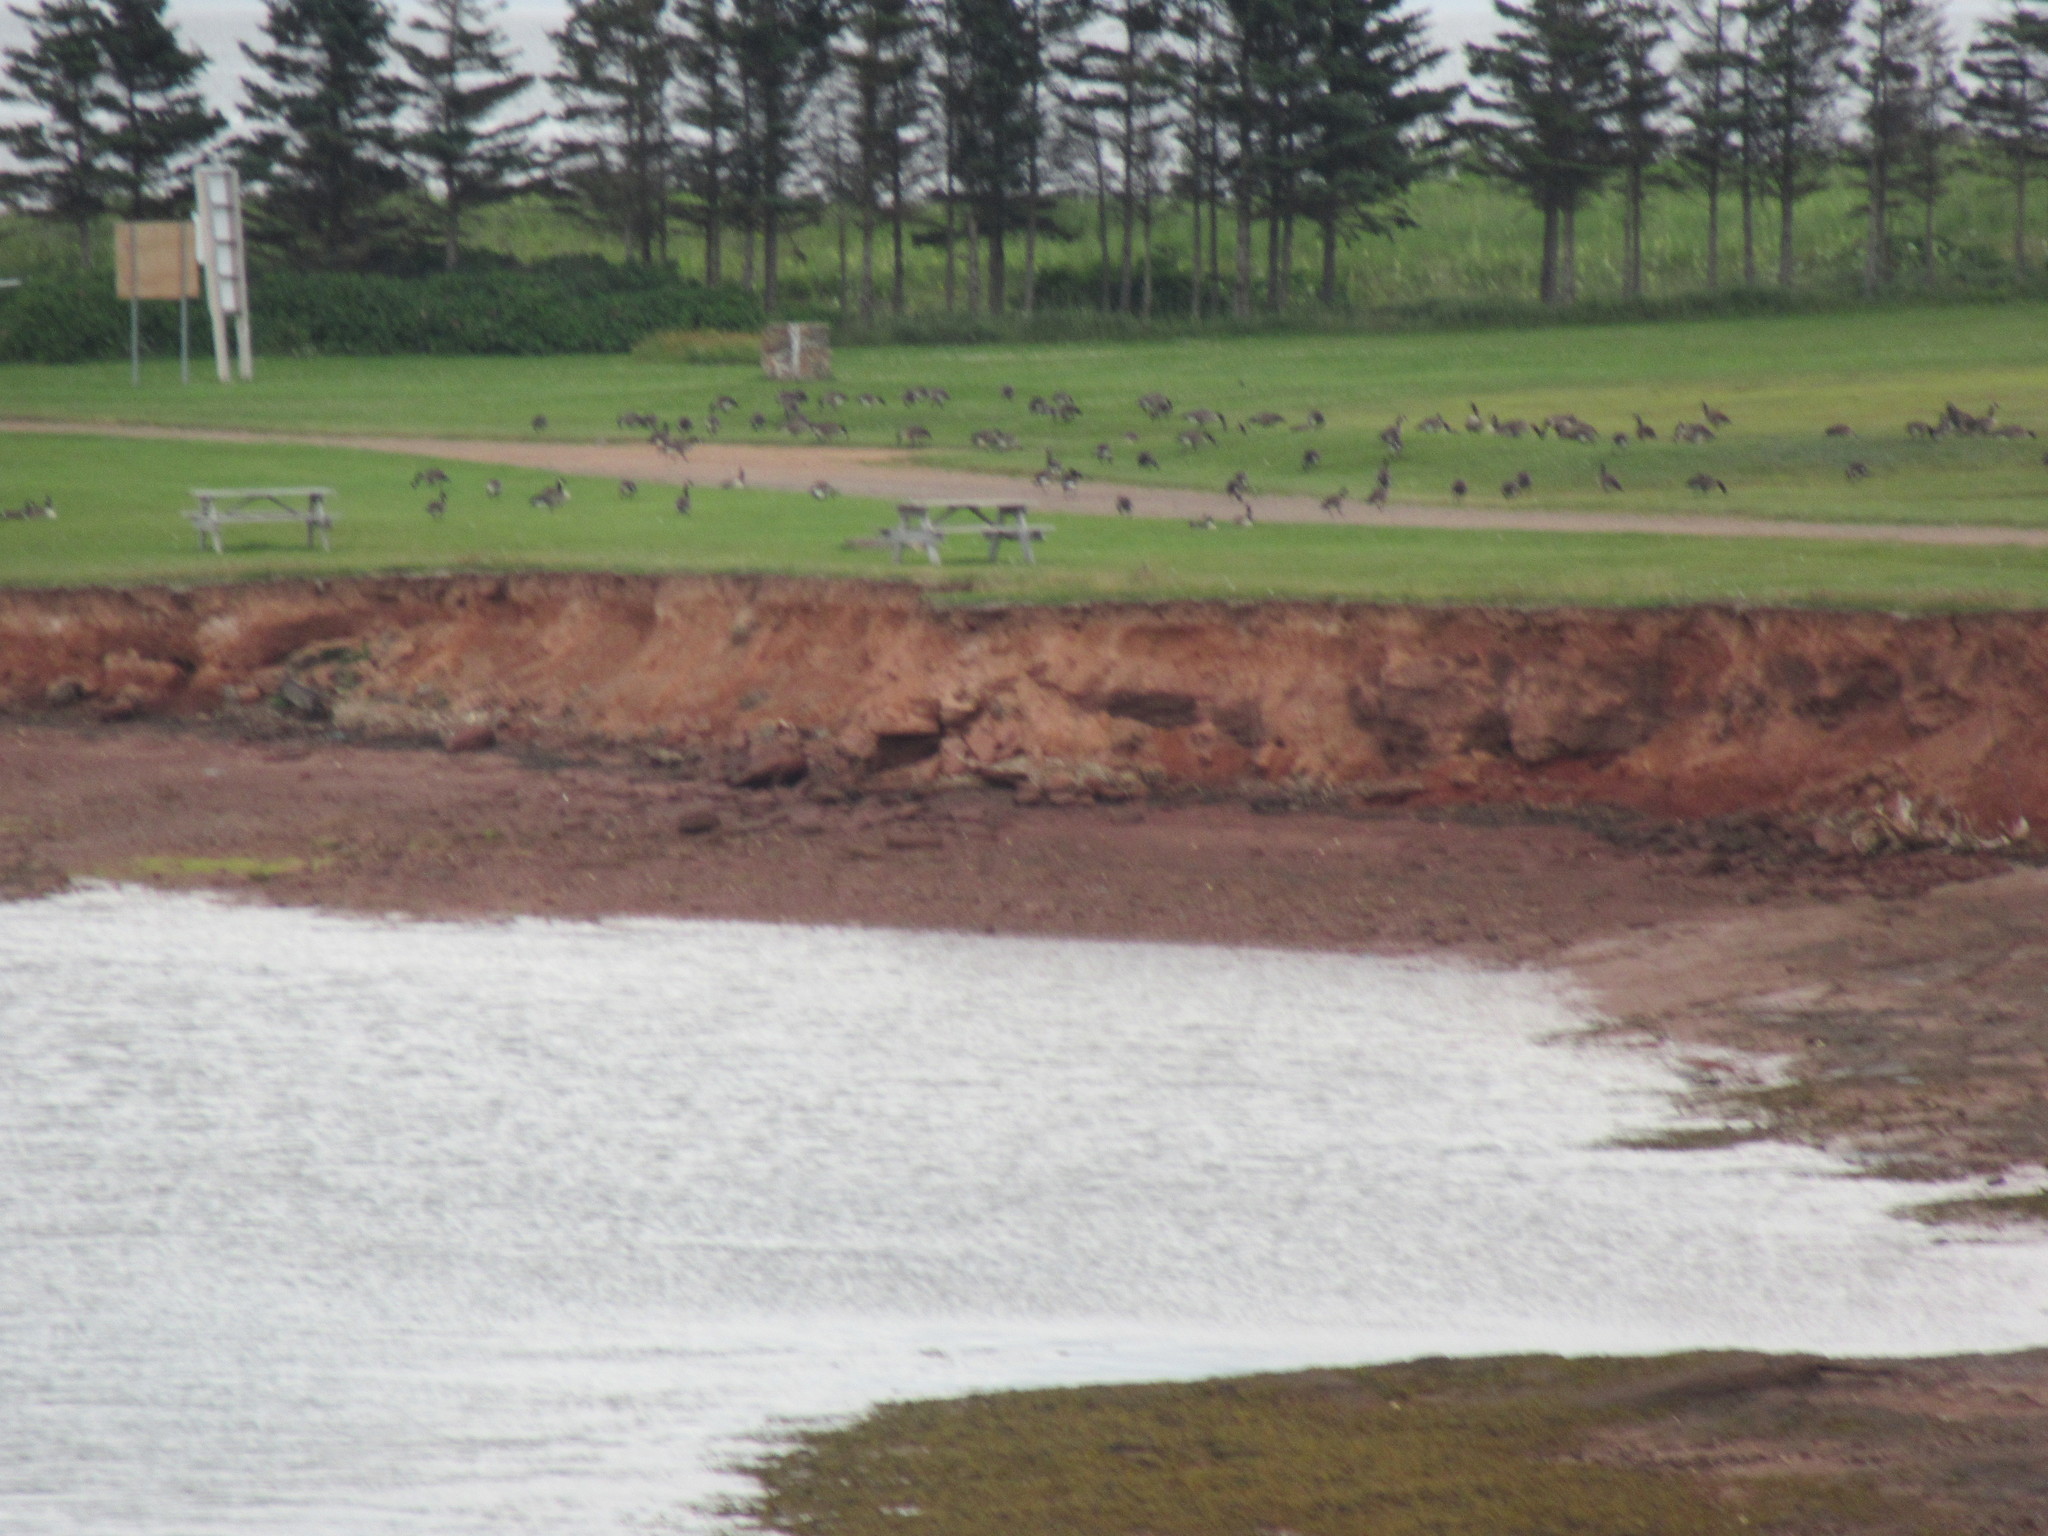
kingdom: Animalia
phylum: Chordata
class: Aves
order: Anseriformes
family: Anatidae
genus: Branta
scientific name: Branta canadensis
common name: Canada goose
